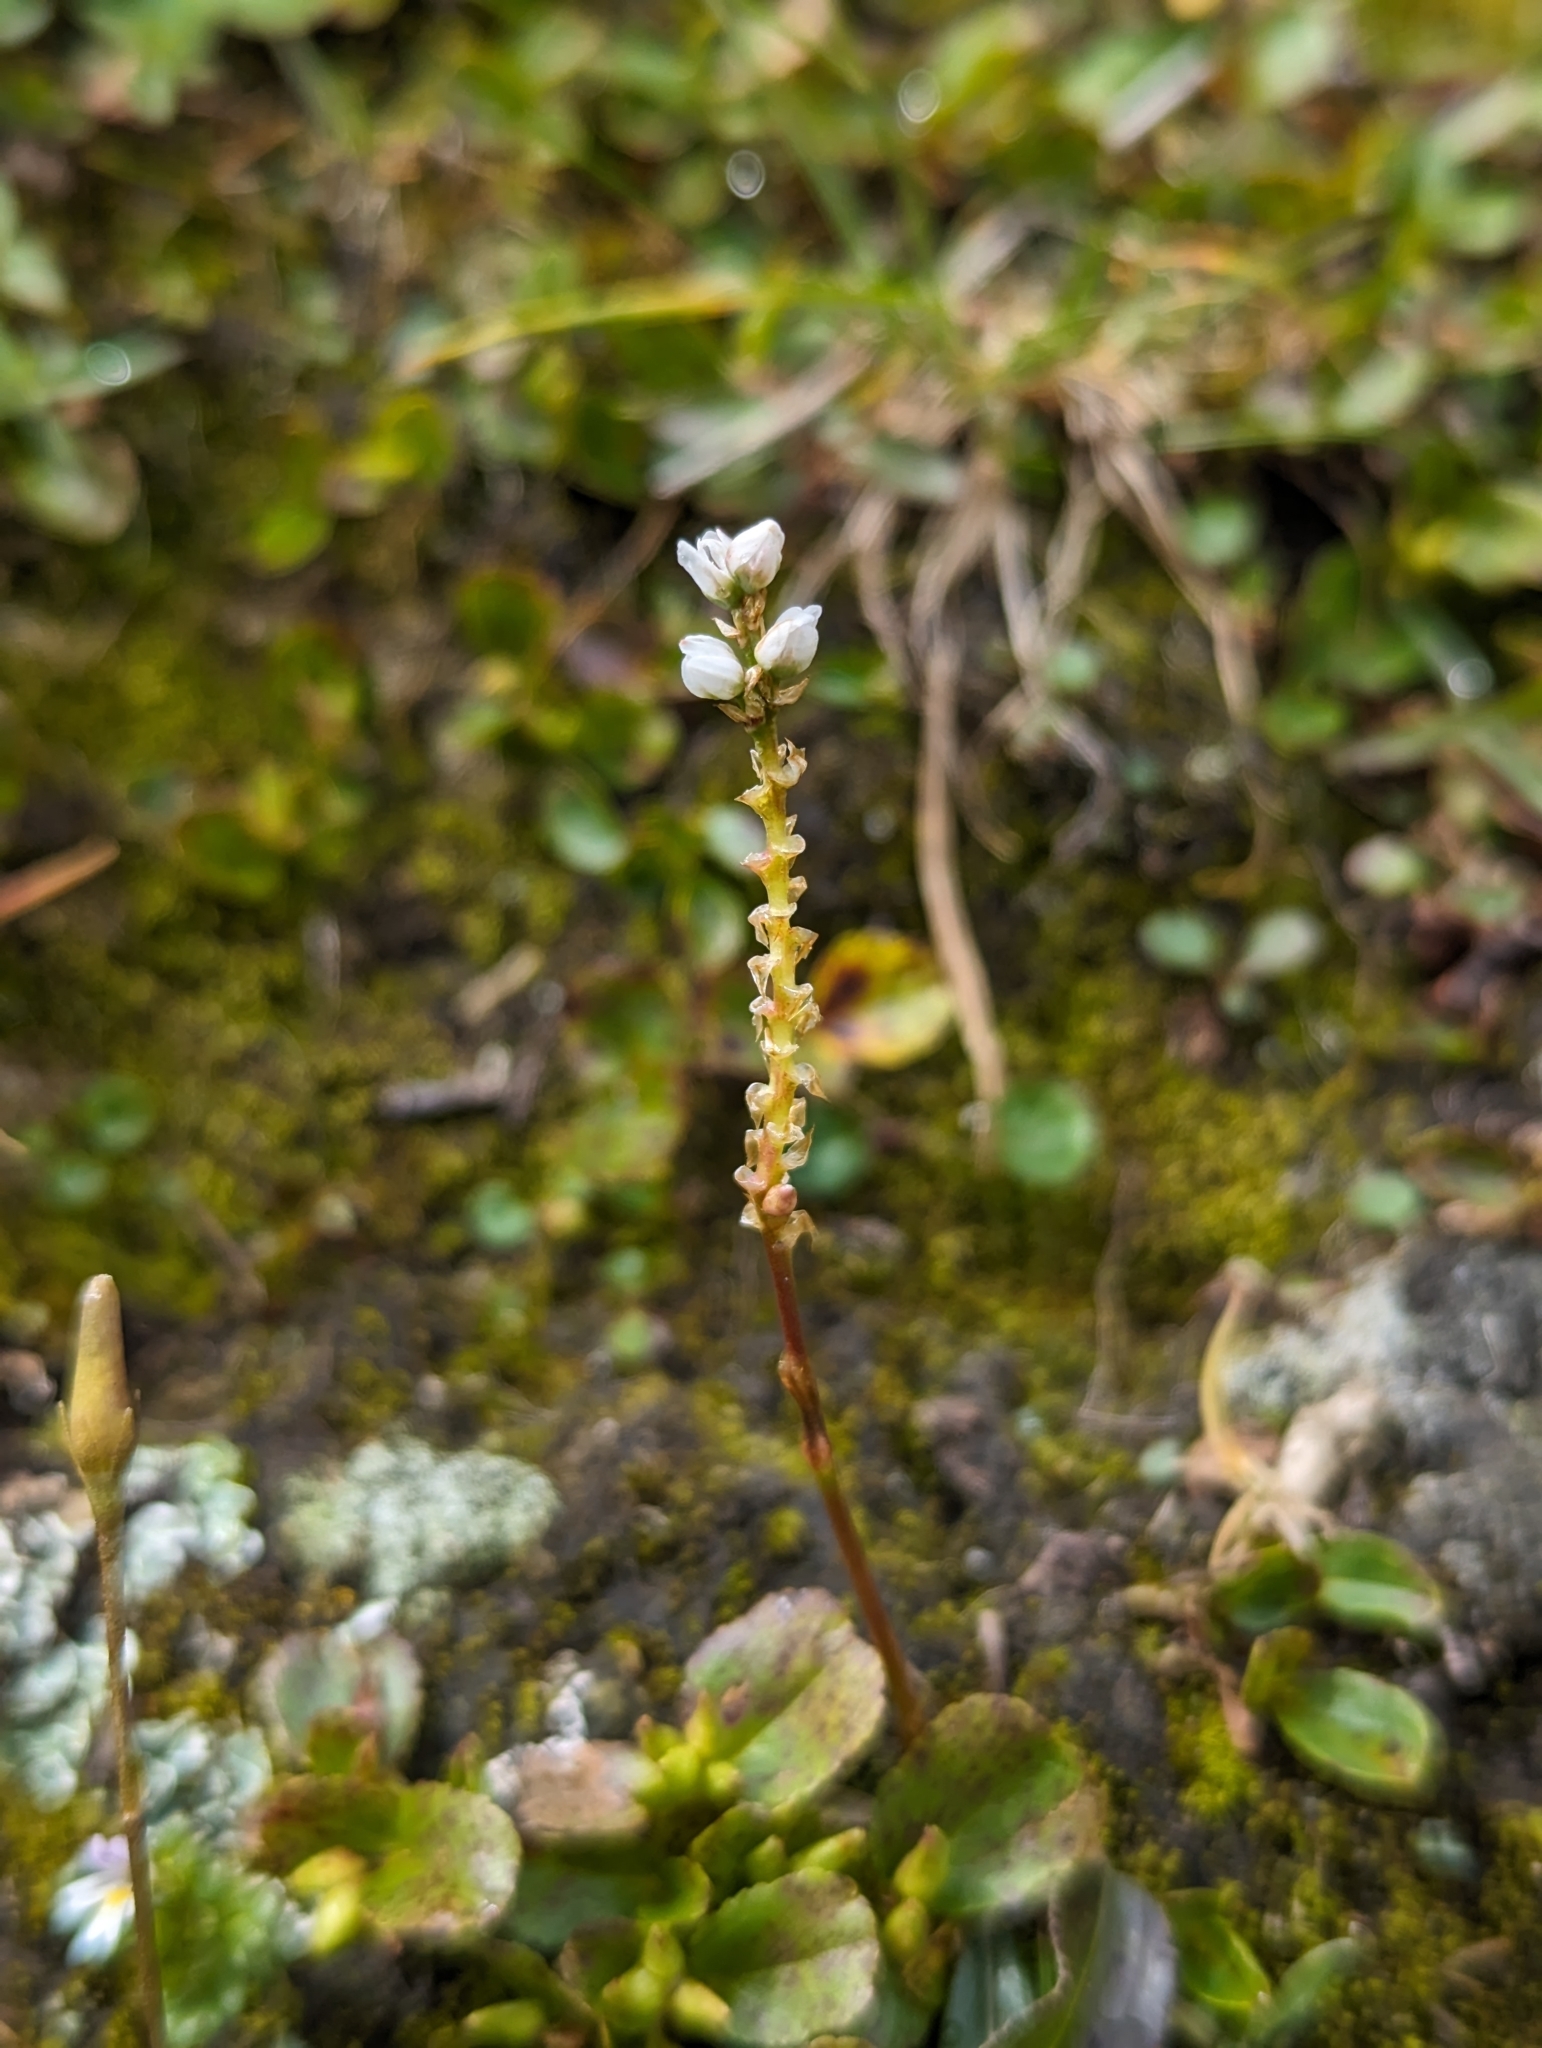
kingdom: Plantae
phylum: Tracheophyta
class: Magnoliopsida
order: Caryophyllales
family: Polygonaceae
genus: Bistorta
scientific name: Bistorta vivipara
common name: Alpine bistort
